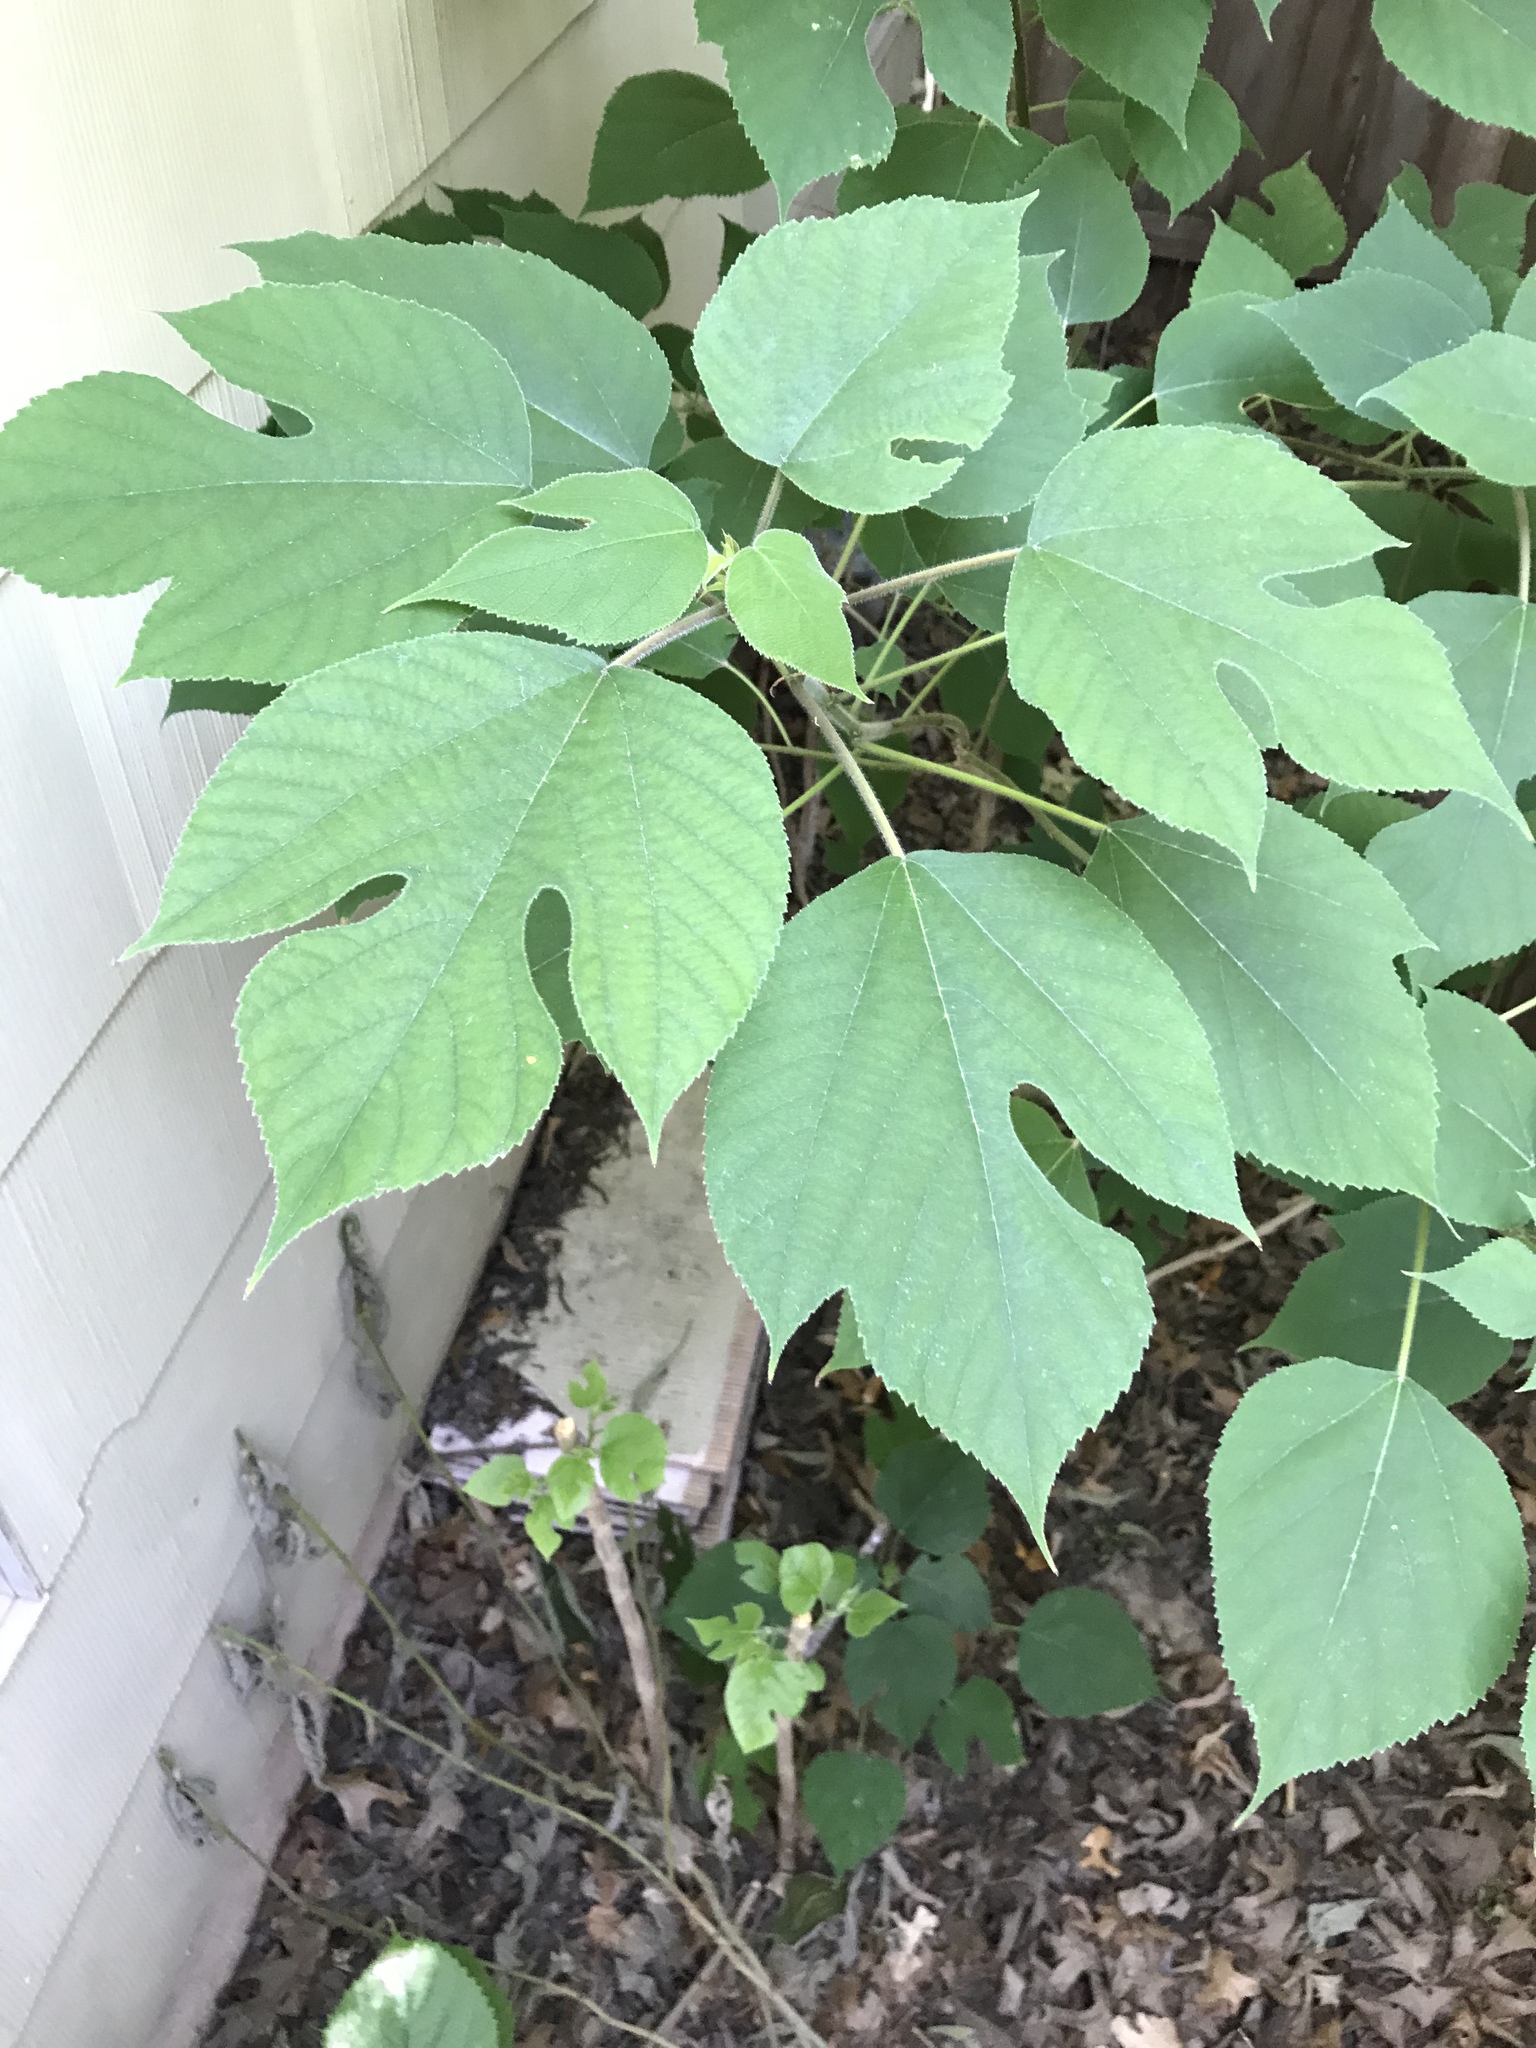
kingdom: Plantae
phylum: Tracheophyta
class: Magnoliopsida
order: Rosales
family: Moraceae
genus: Broussonetia
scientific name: Broussonetia papyrifera
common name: Paper mulberry
